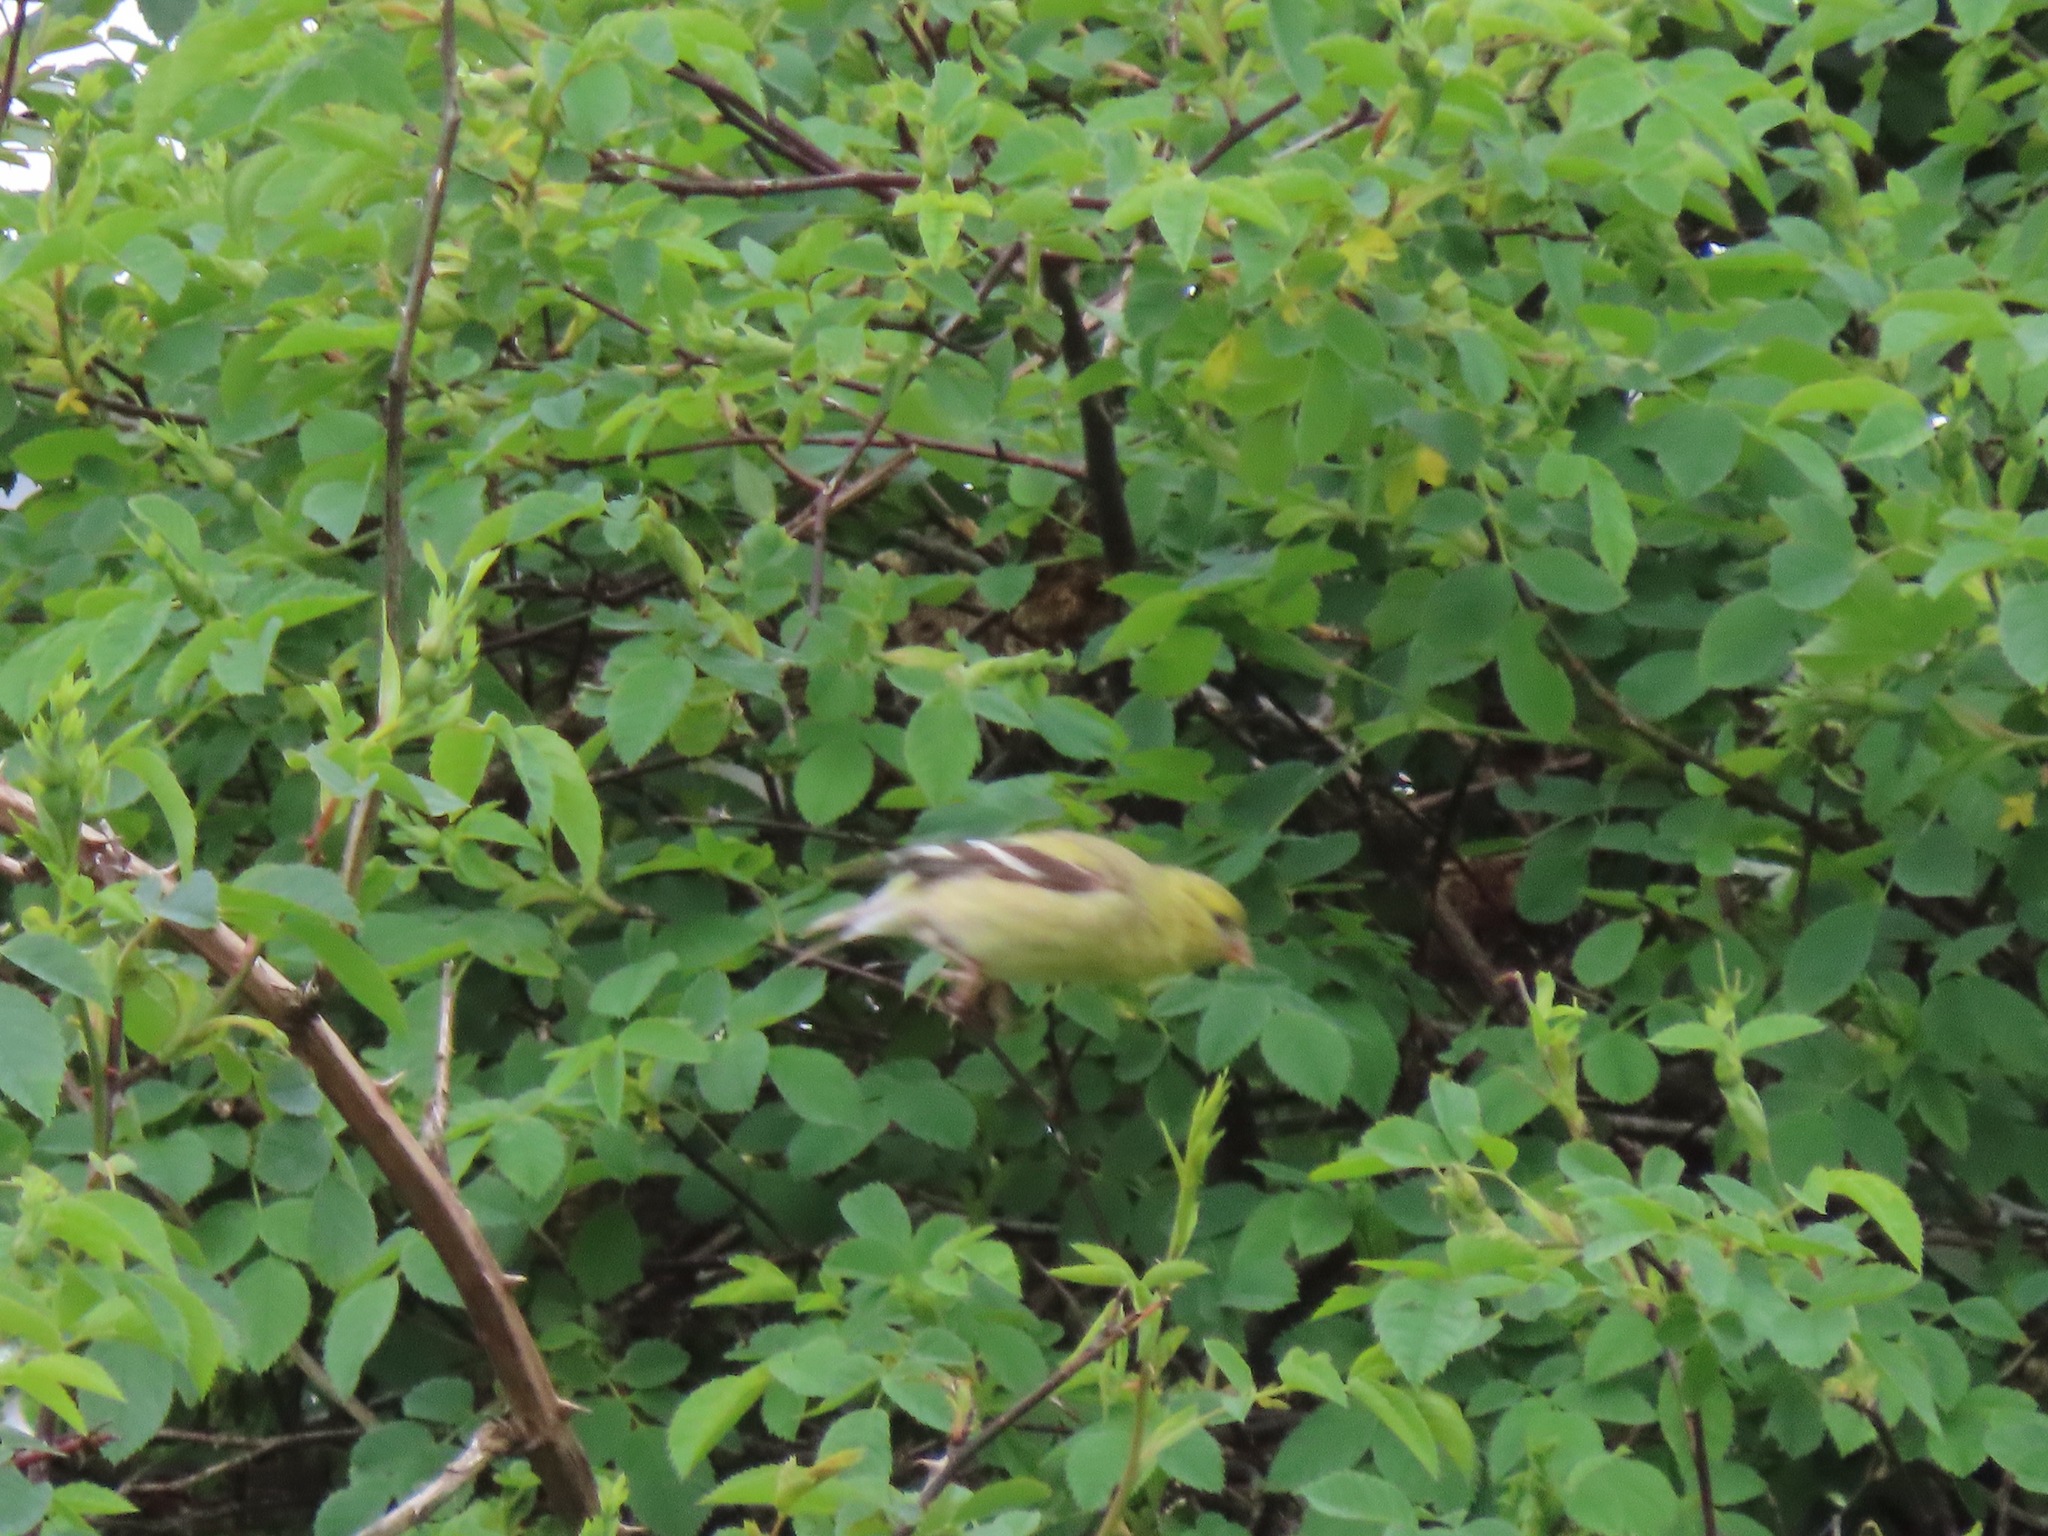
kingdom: Animalia
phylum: Chordata
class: Aves
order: Passeriformes
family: Fringillidae
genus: Spinus
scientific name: Spinus tristis
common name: American goldfinch
